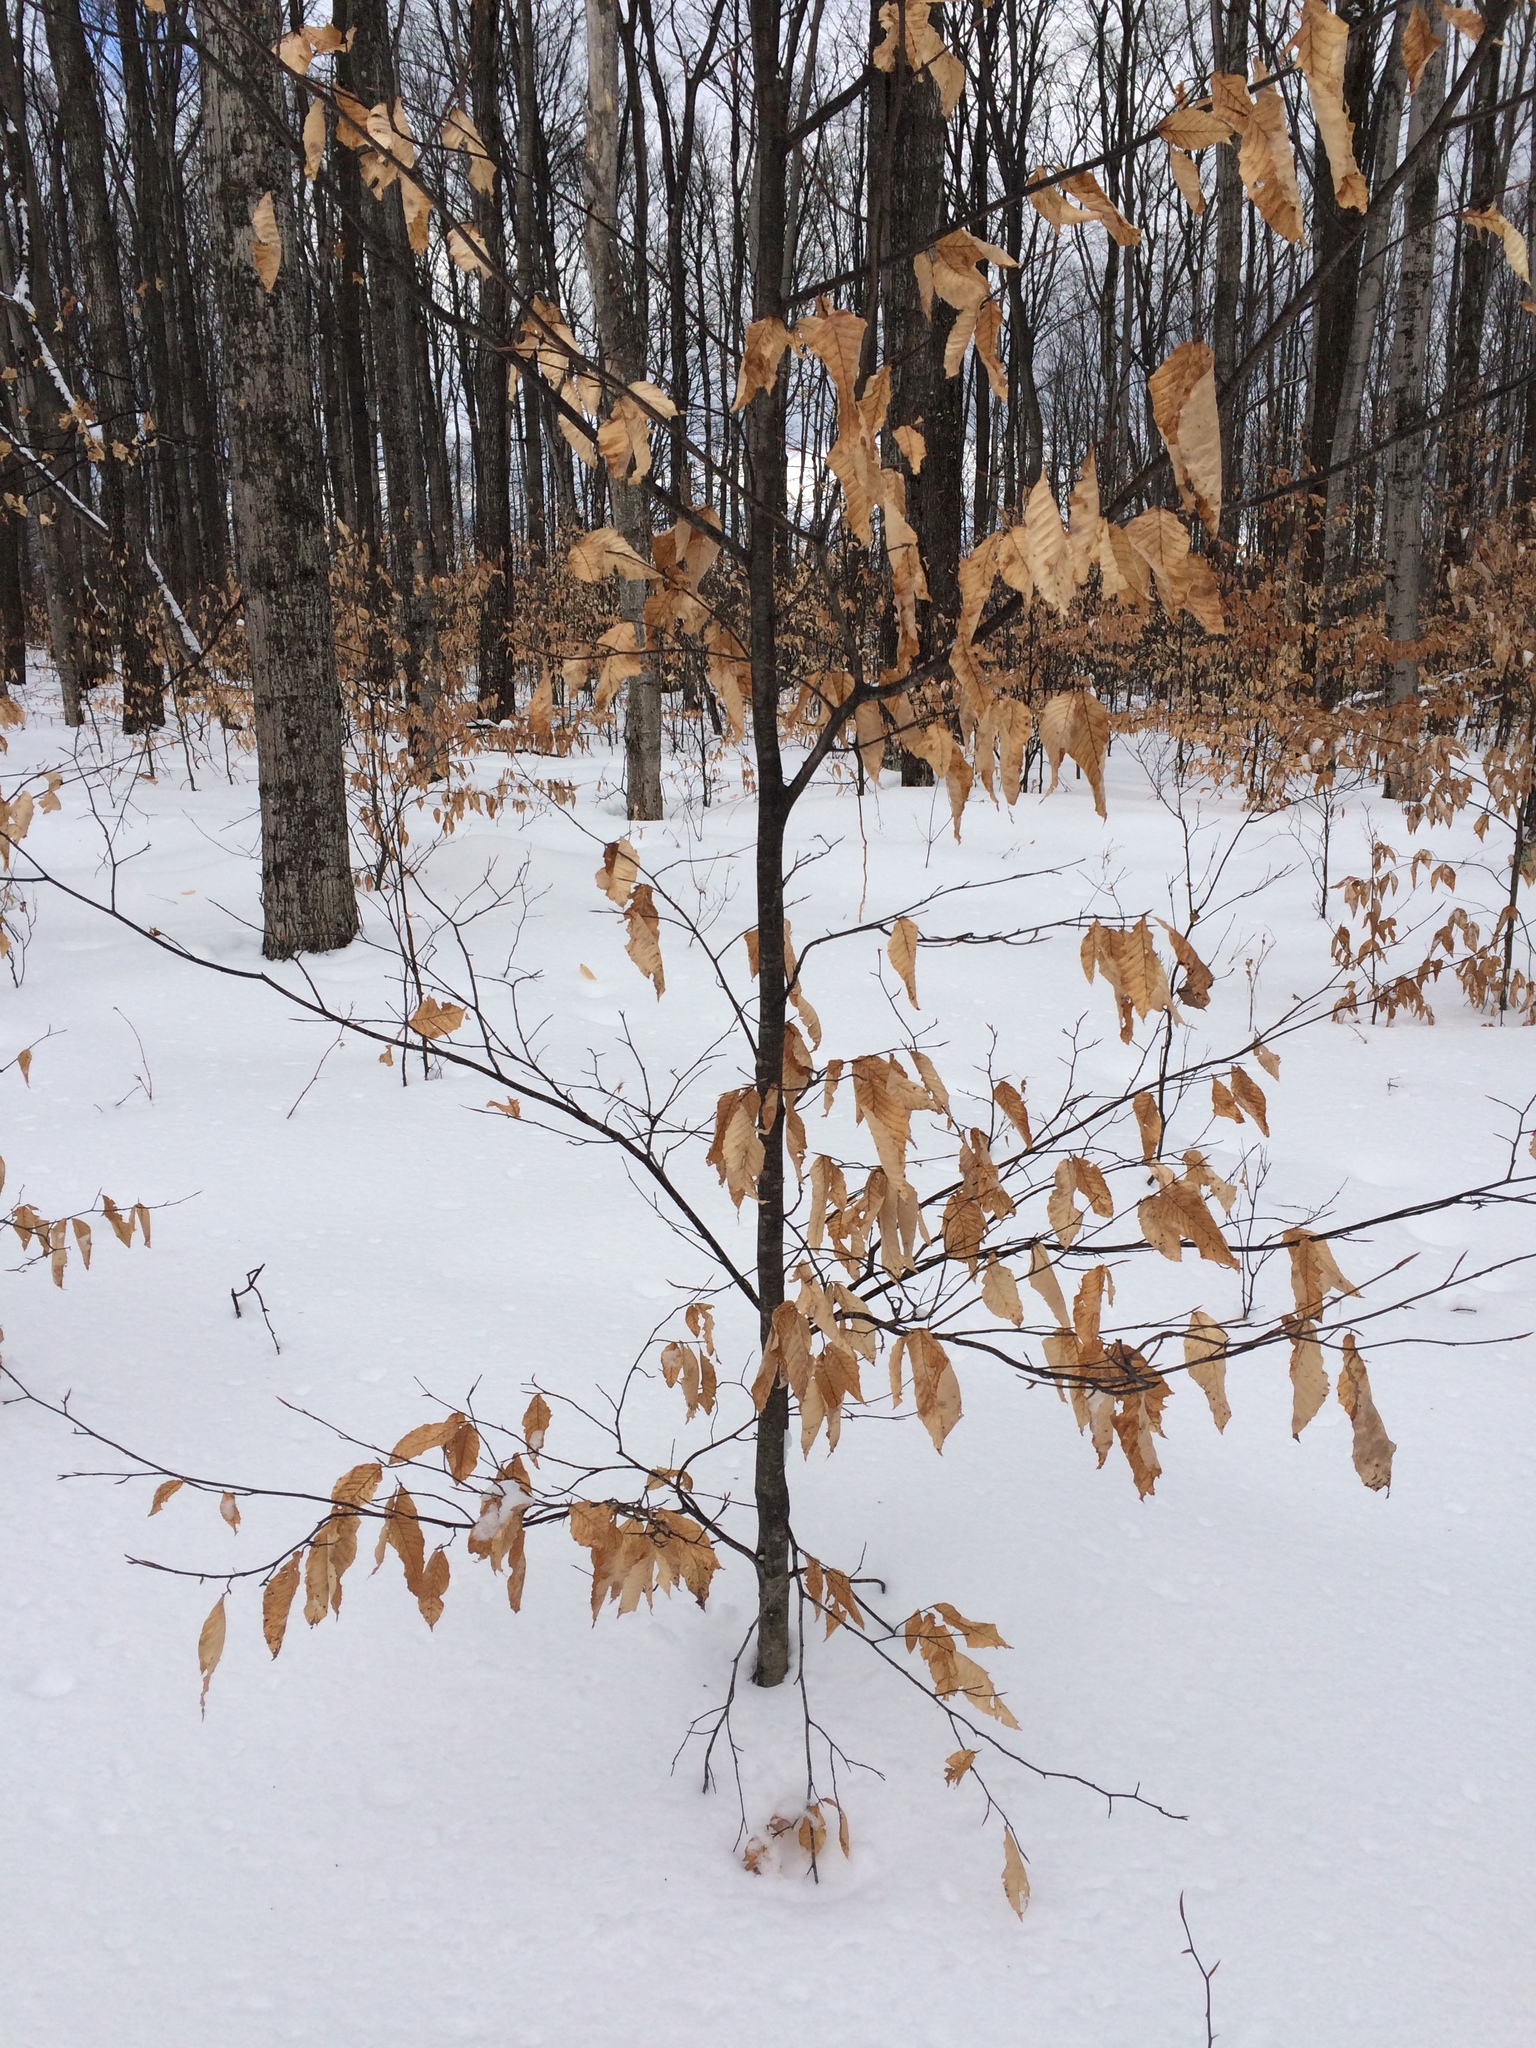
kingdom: Plantae
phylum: Tracheophyta
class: Magnoliopsida
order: Fagales
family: Fagaceae
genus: Fagus
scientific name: Fagus grandifolia
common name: American beech
